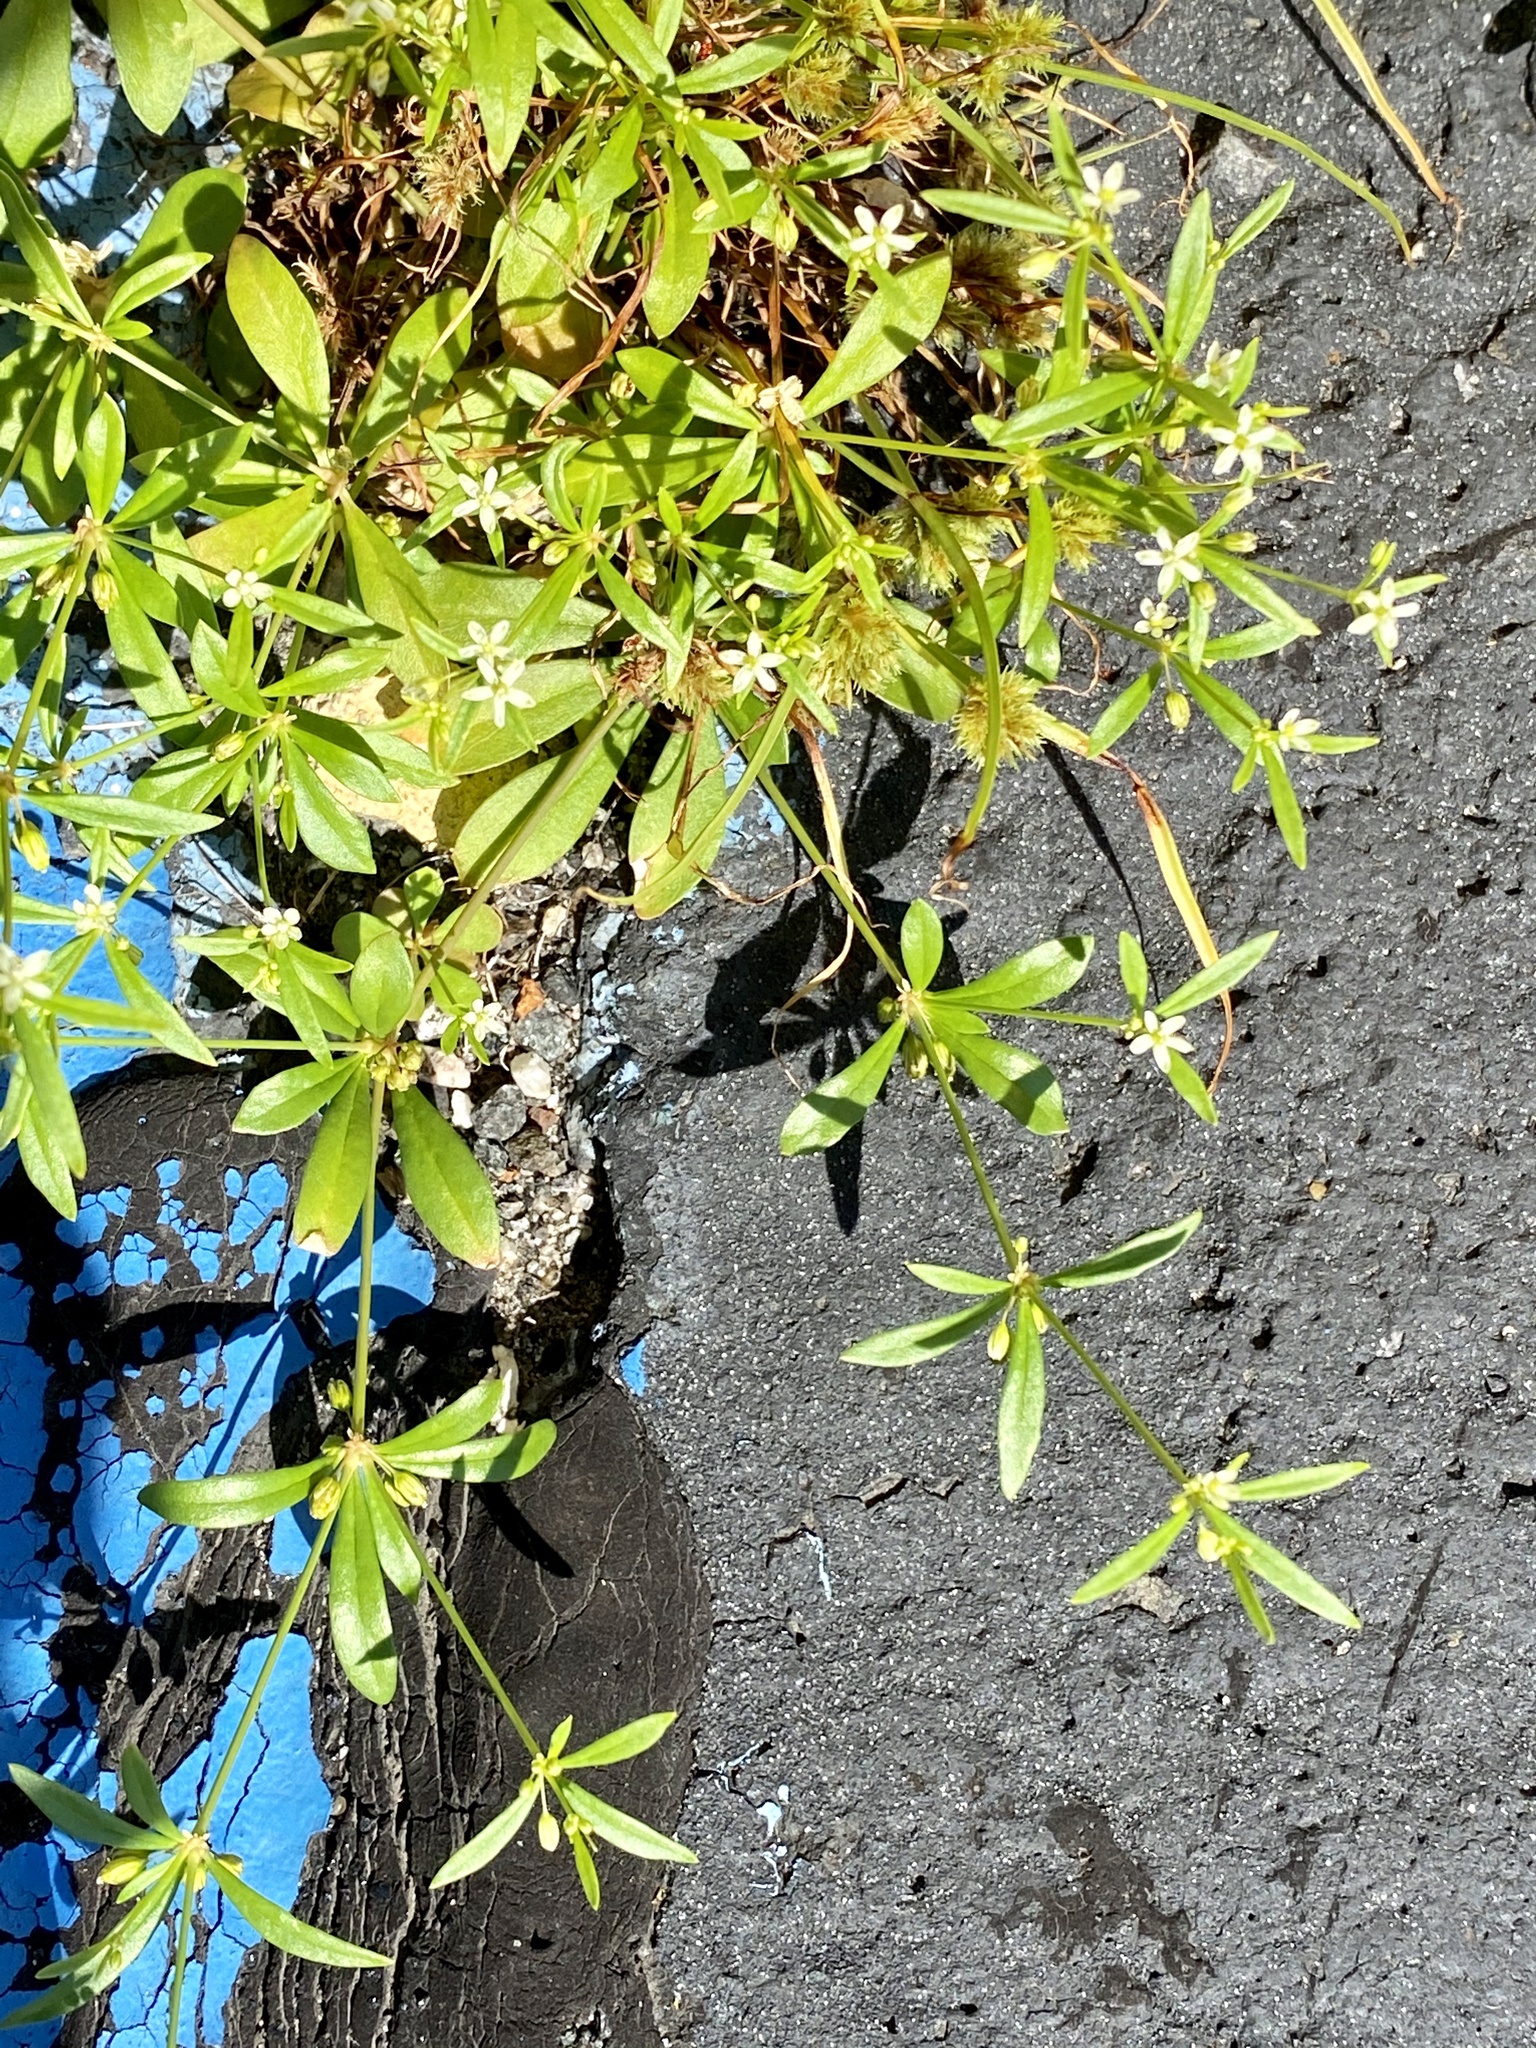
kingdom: Plantae
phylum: Tracheophyta
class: Magnoliopsida
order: Caryophyllales
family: Molluginaceae
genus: Mollugo
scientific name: Mollugo verticillata
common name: Green carpetweed
